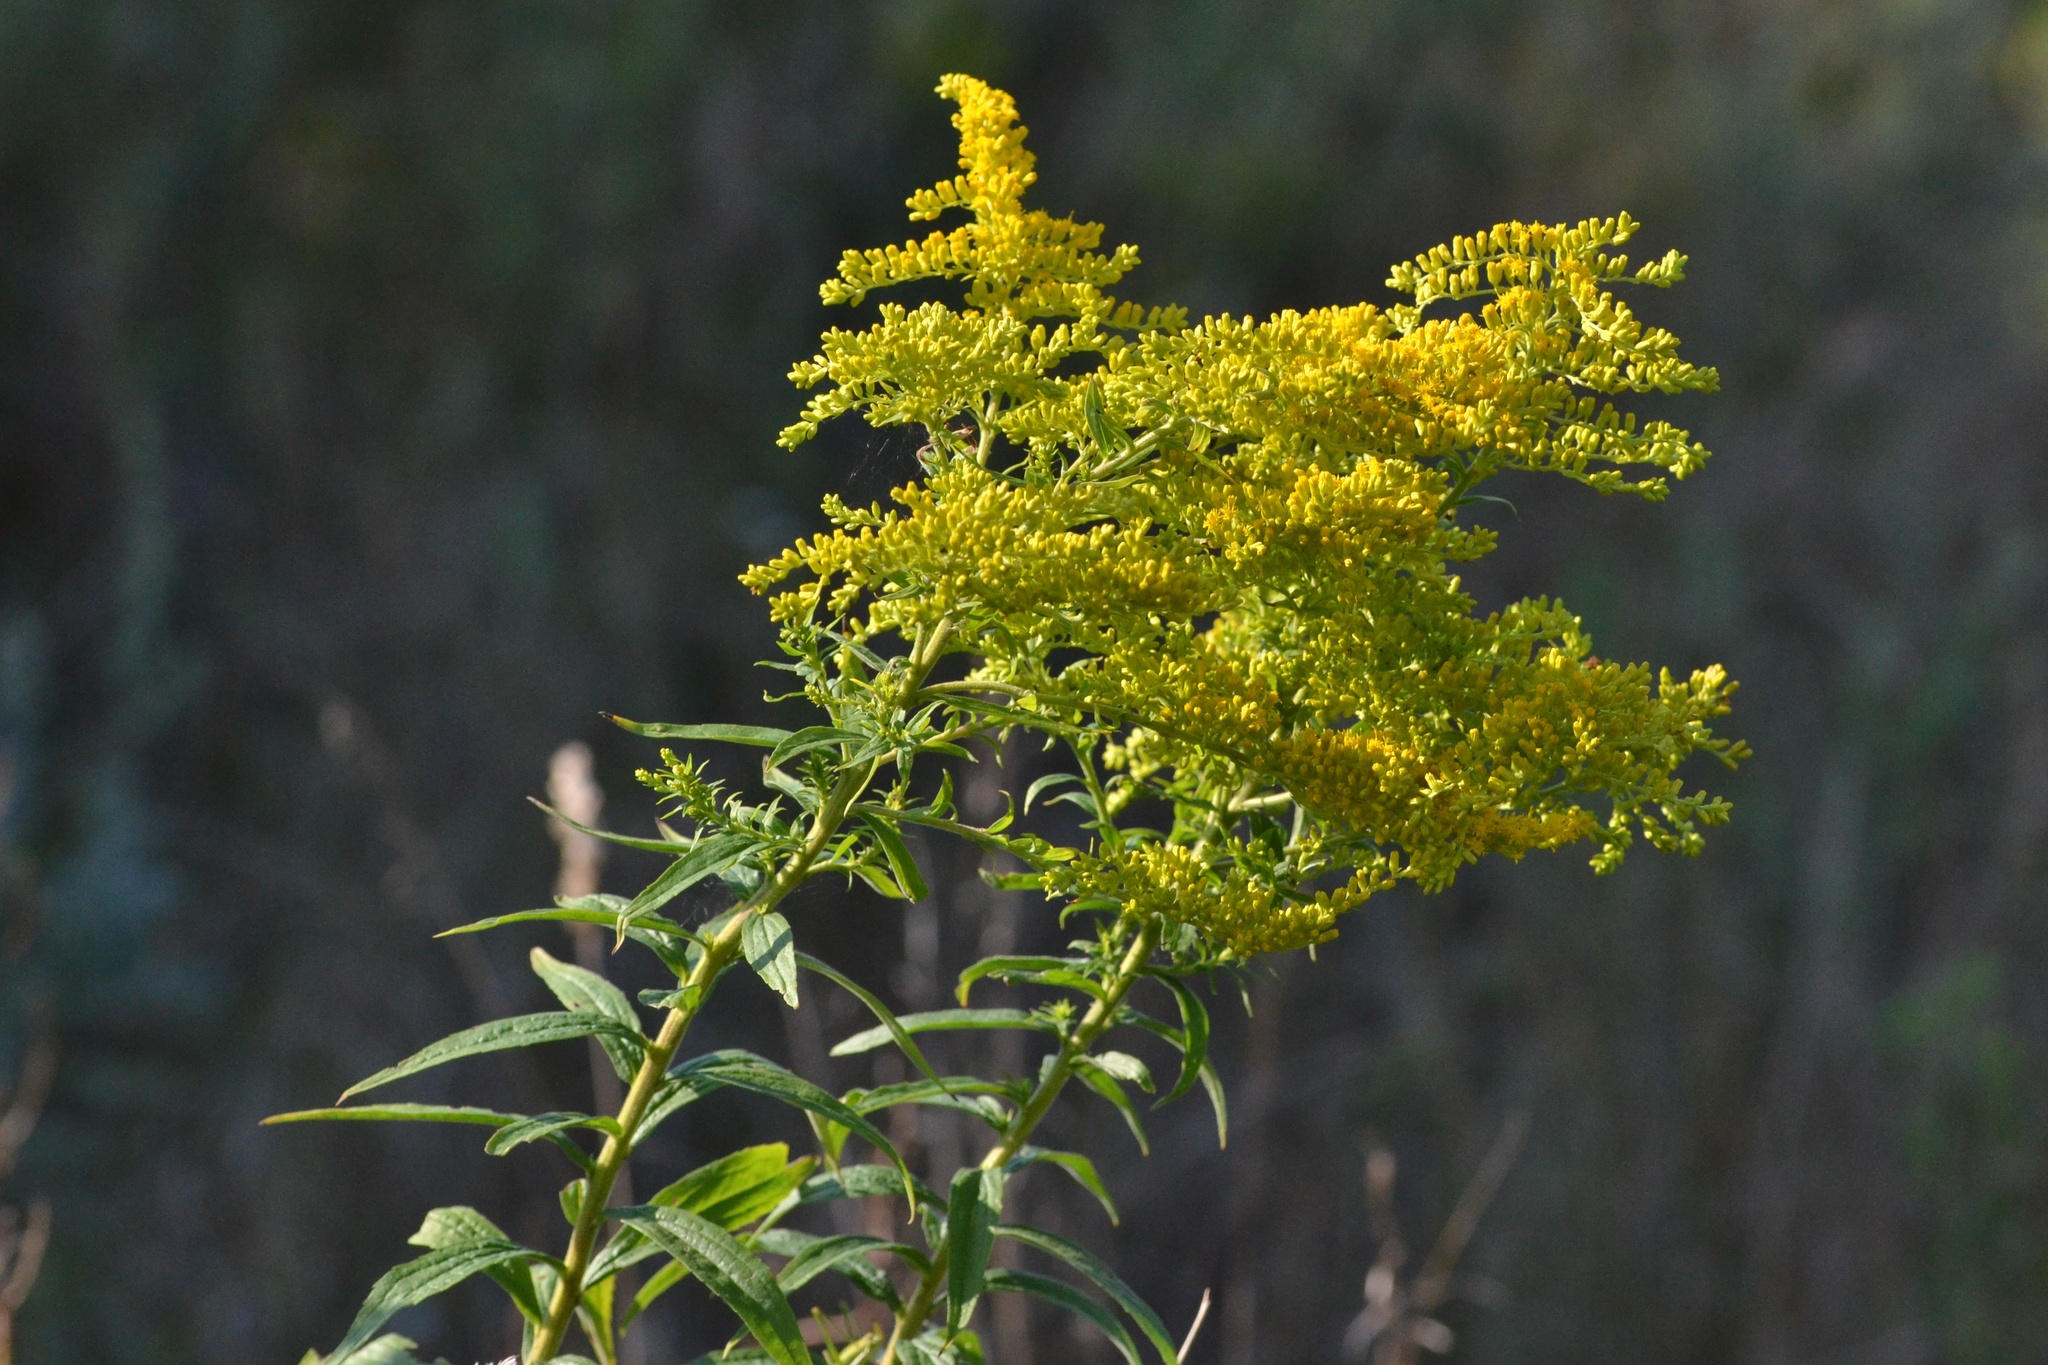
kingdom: Plantae
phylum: Tracheophyta
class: Magnoliopsida
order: Asterales
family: Asteraceae
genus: Solidago
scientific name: Solidago canadensis
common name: Canada goldenrod
